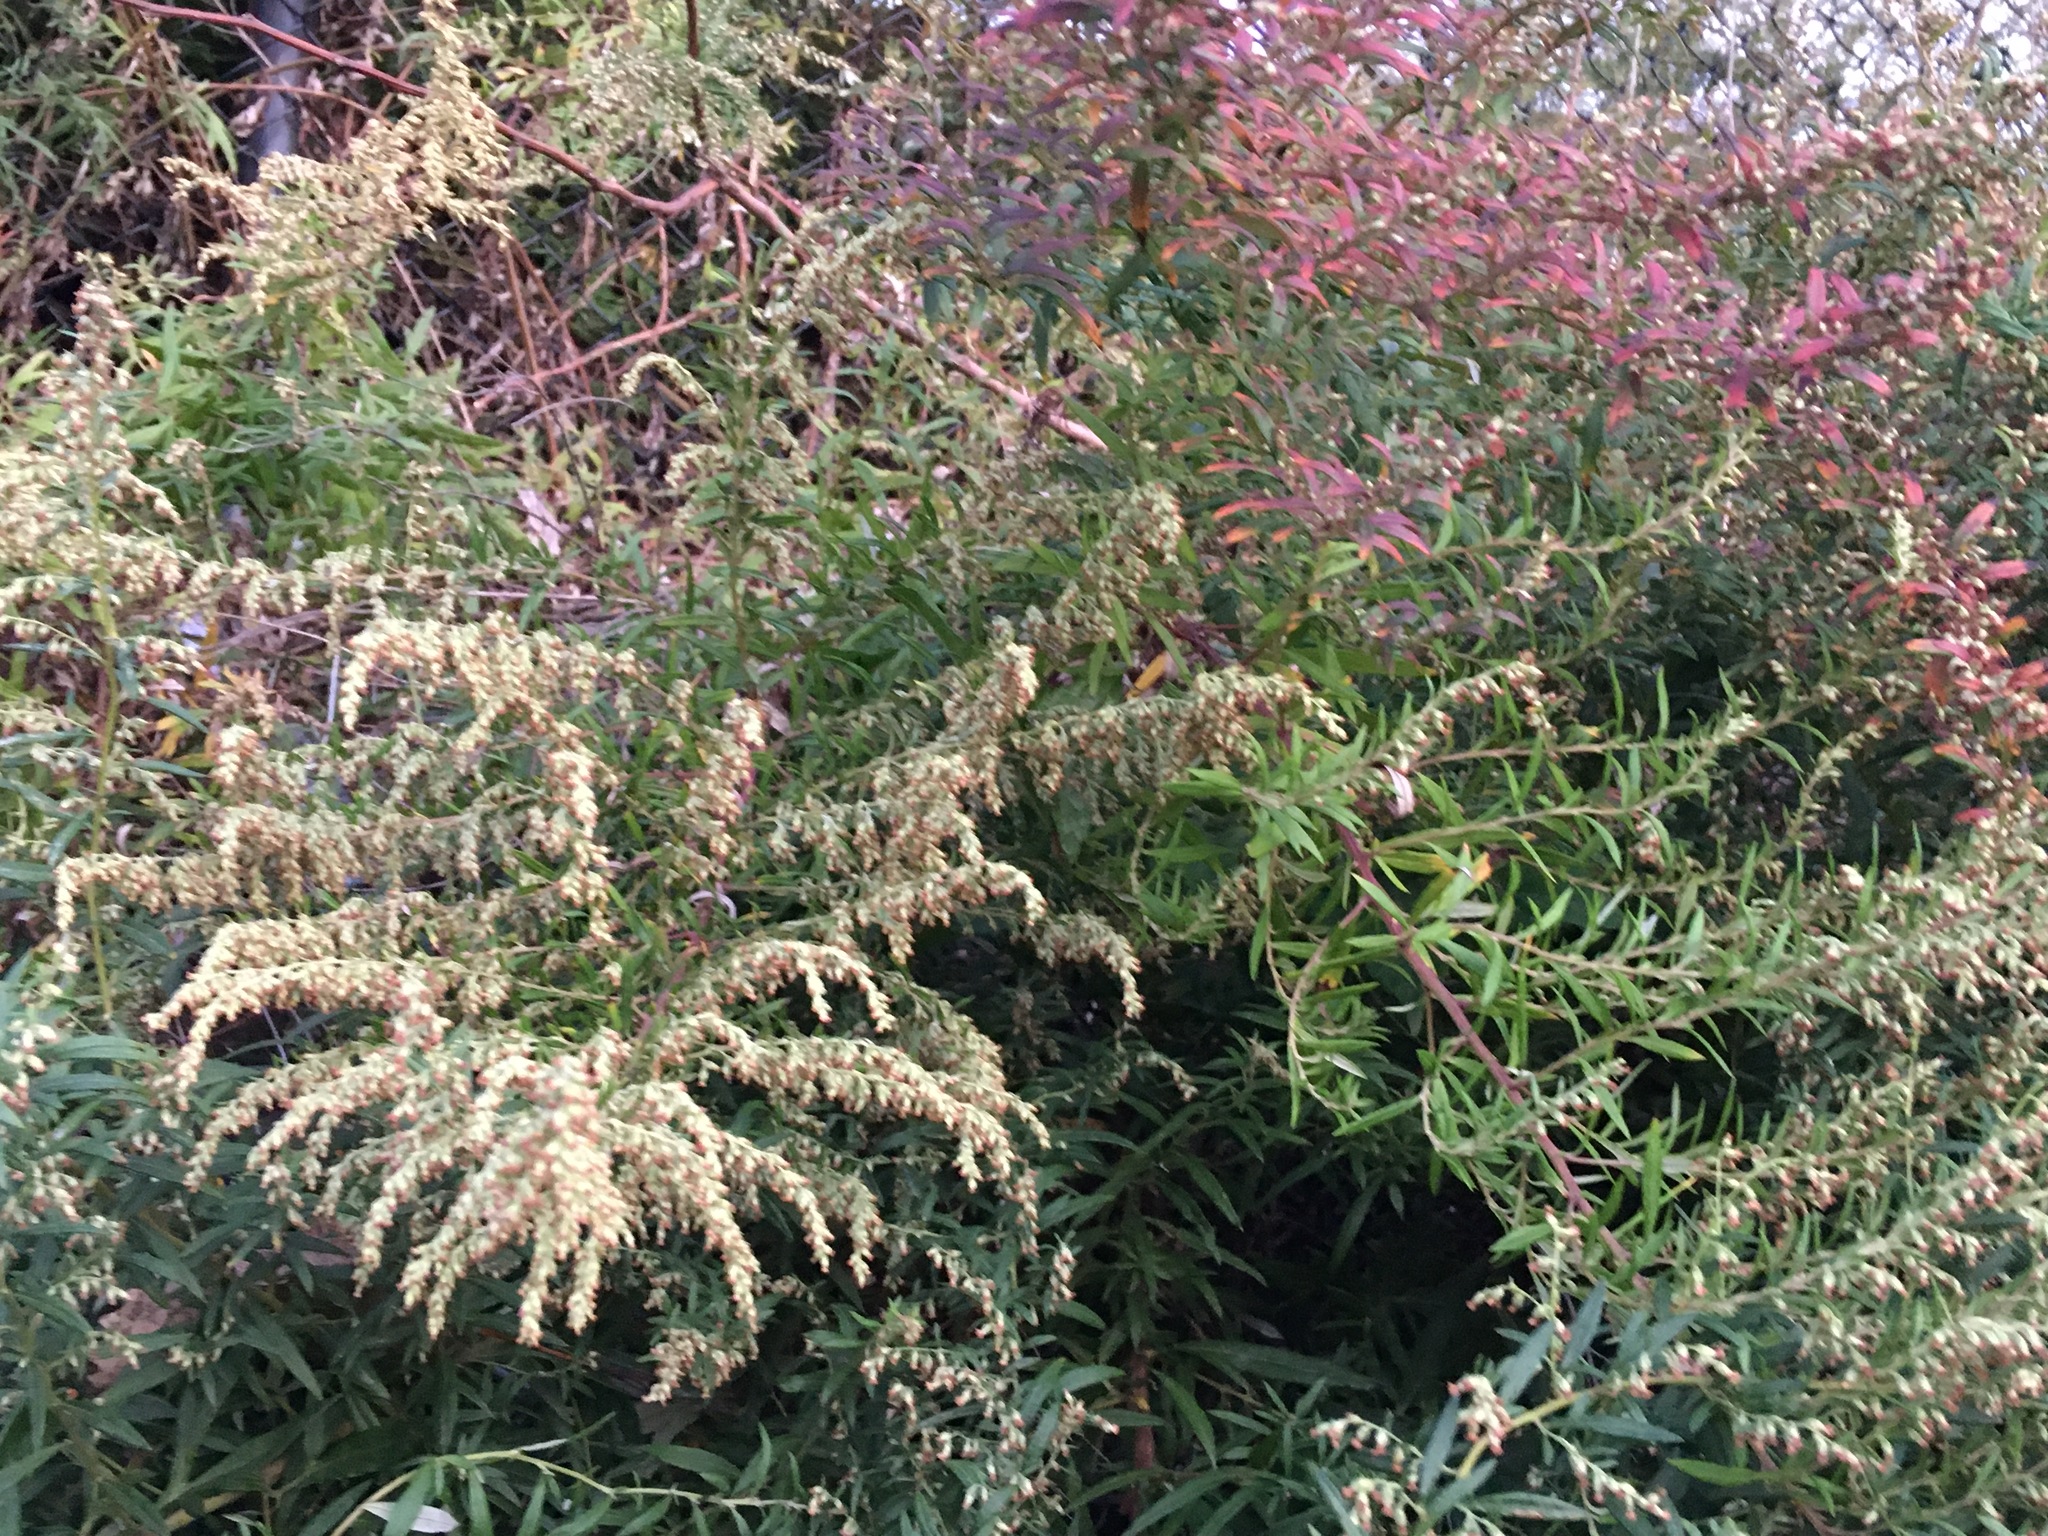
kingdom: Plantae
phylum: Tracheophyta
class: Magnoliopsida
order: Asterales
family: Asteraceae
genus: Artemisia
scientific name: Artemisia vulgaris
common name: Mugwort
